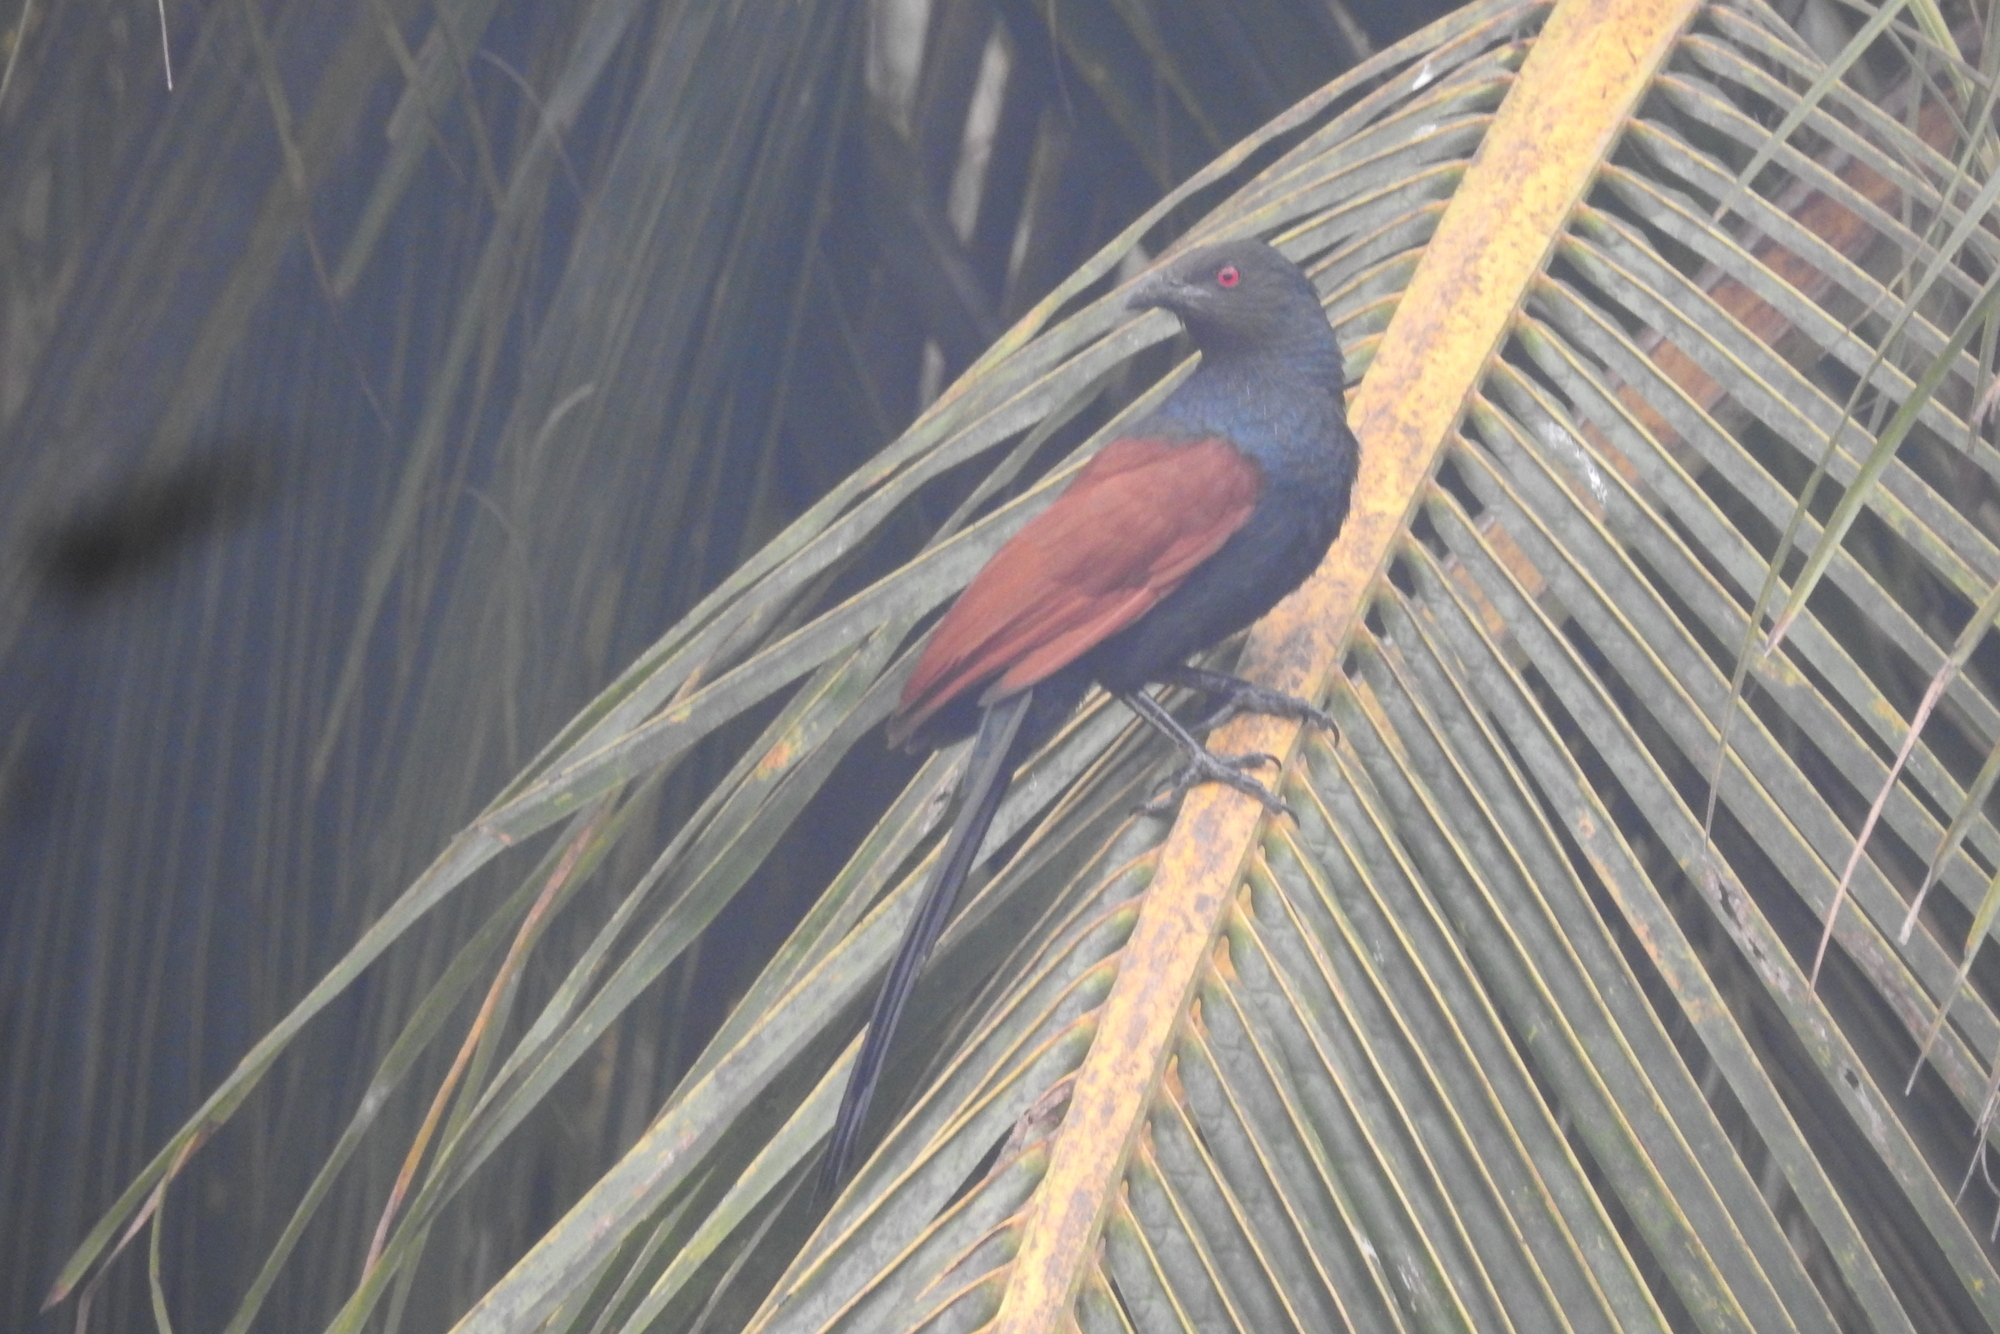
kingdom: Animalia
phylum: Chordata
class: Aves
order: Cuculiformes
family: Cuculidae
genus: Centropus
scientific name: Centropus sinensis
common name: Greater coucal
